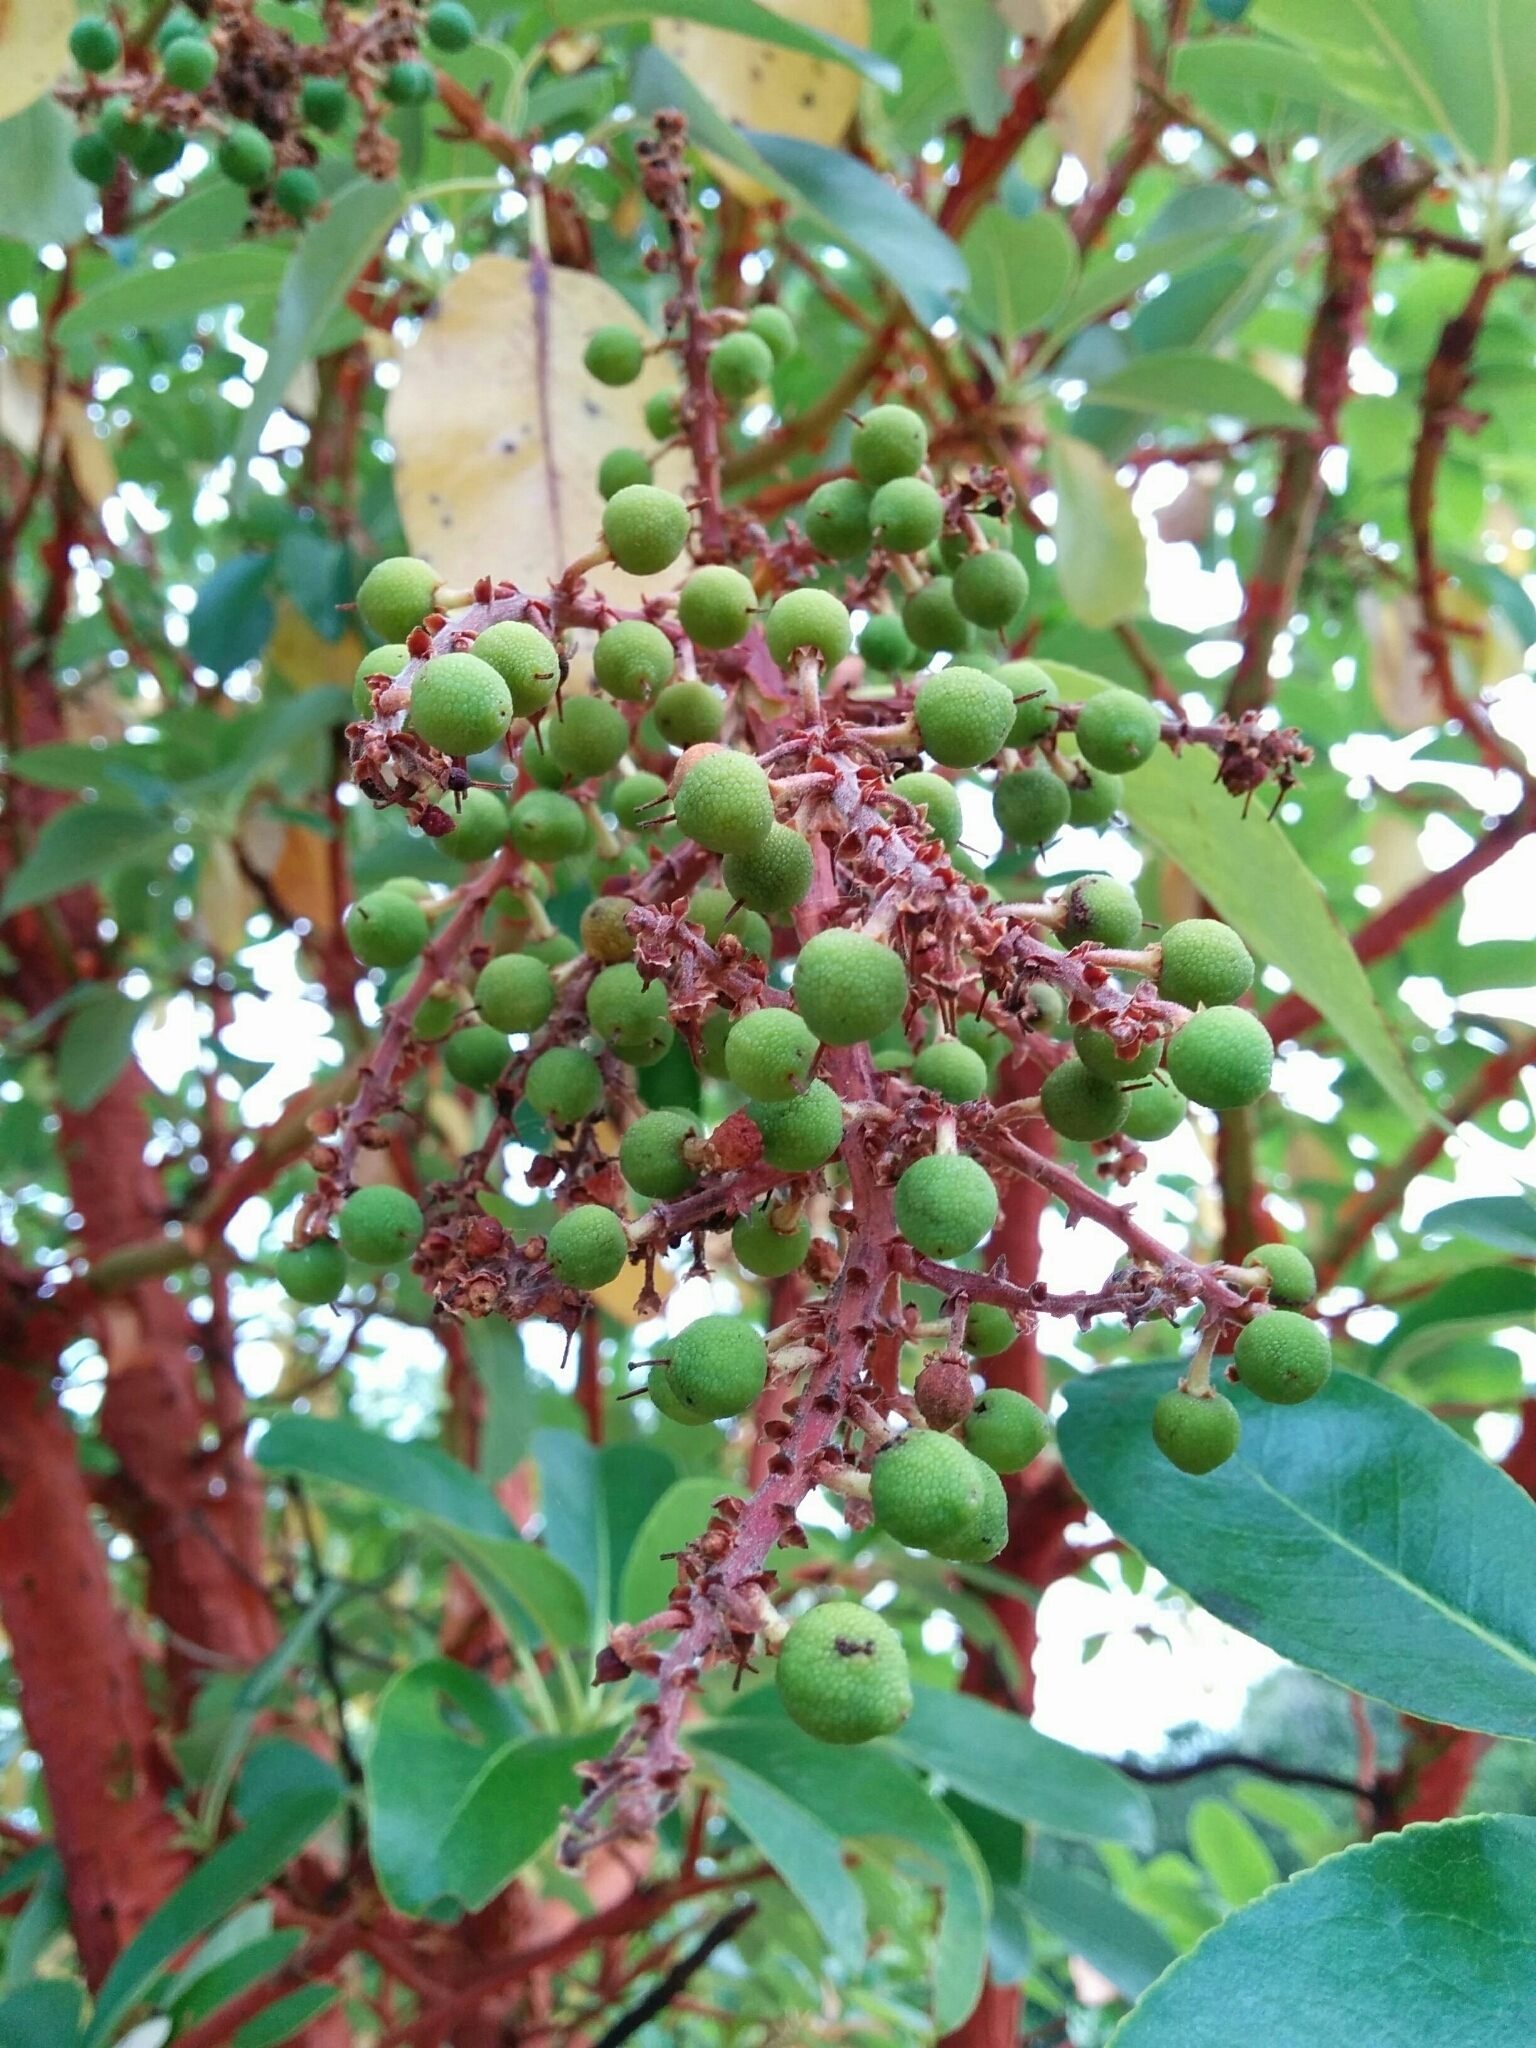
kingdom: Plantae
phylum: Tracheophyta
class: Magnoliopsida
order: Ericales
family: Ericaceae
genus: Arbutus
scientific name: Arbutus menziesii
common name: Pacific madrone
